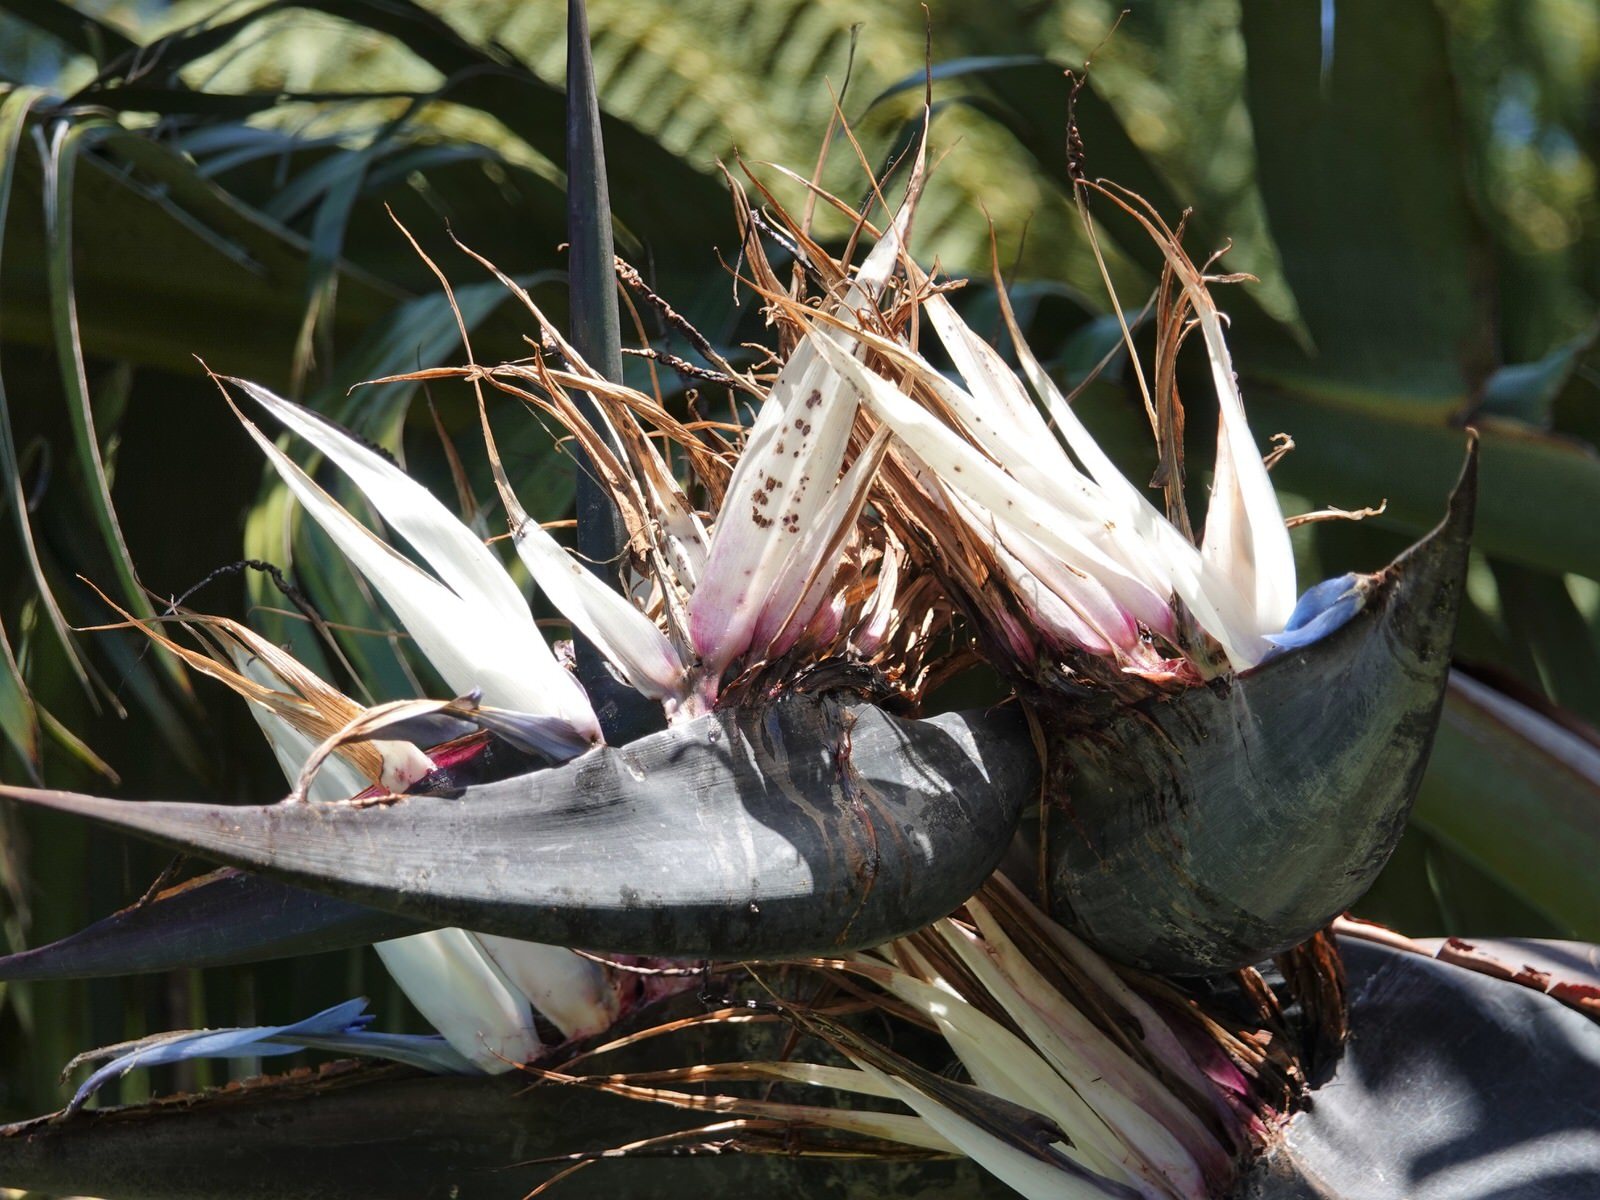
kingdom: Animalia
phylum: Chordata
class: Aves
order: Passeriformes
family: Meliphagidae
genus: Prosthemadera
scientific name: Prosthemadera novaeseelandiae
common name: Tui
